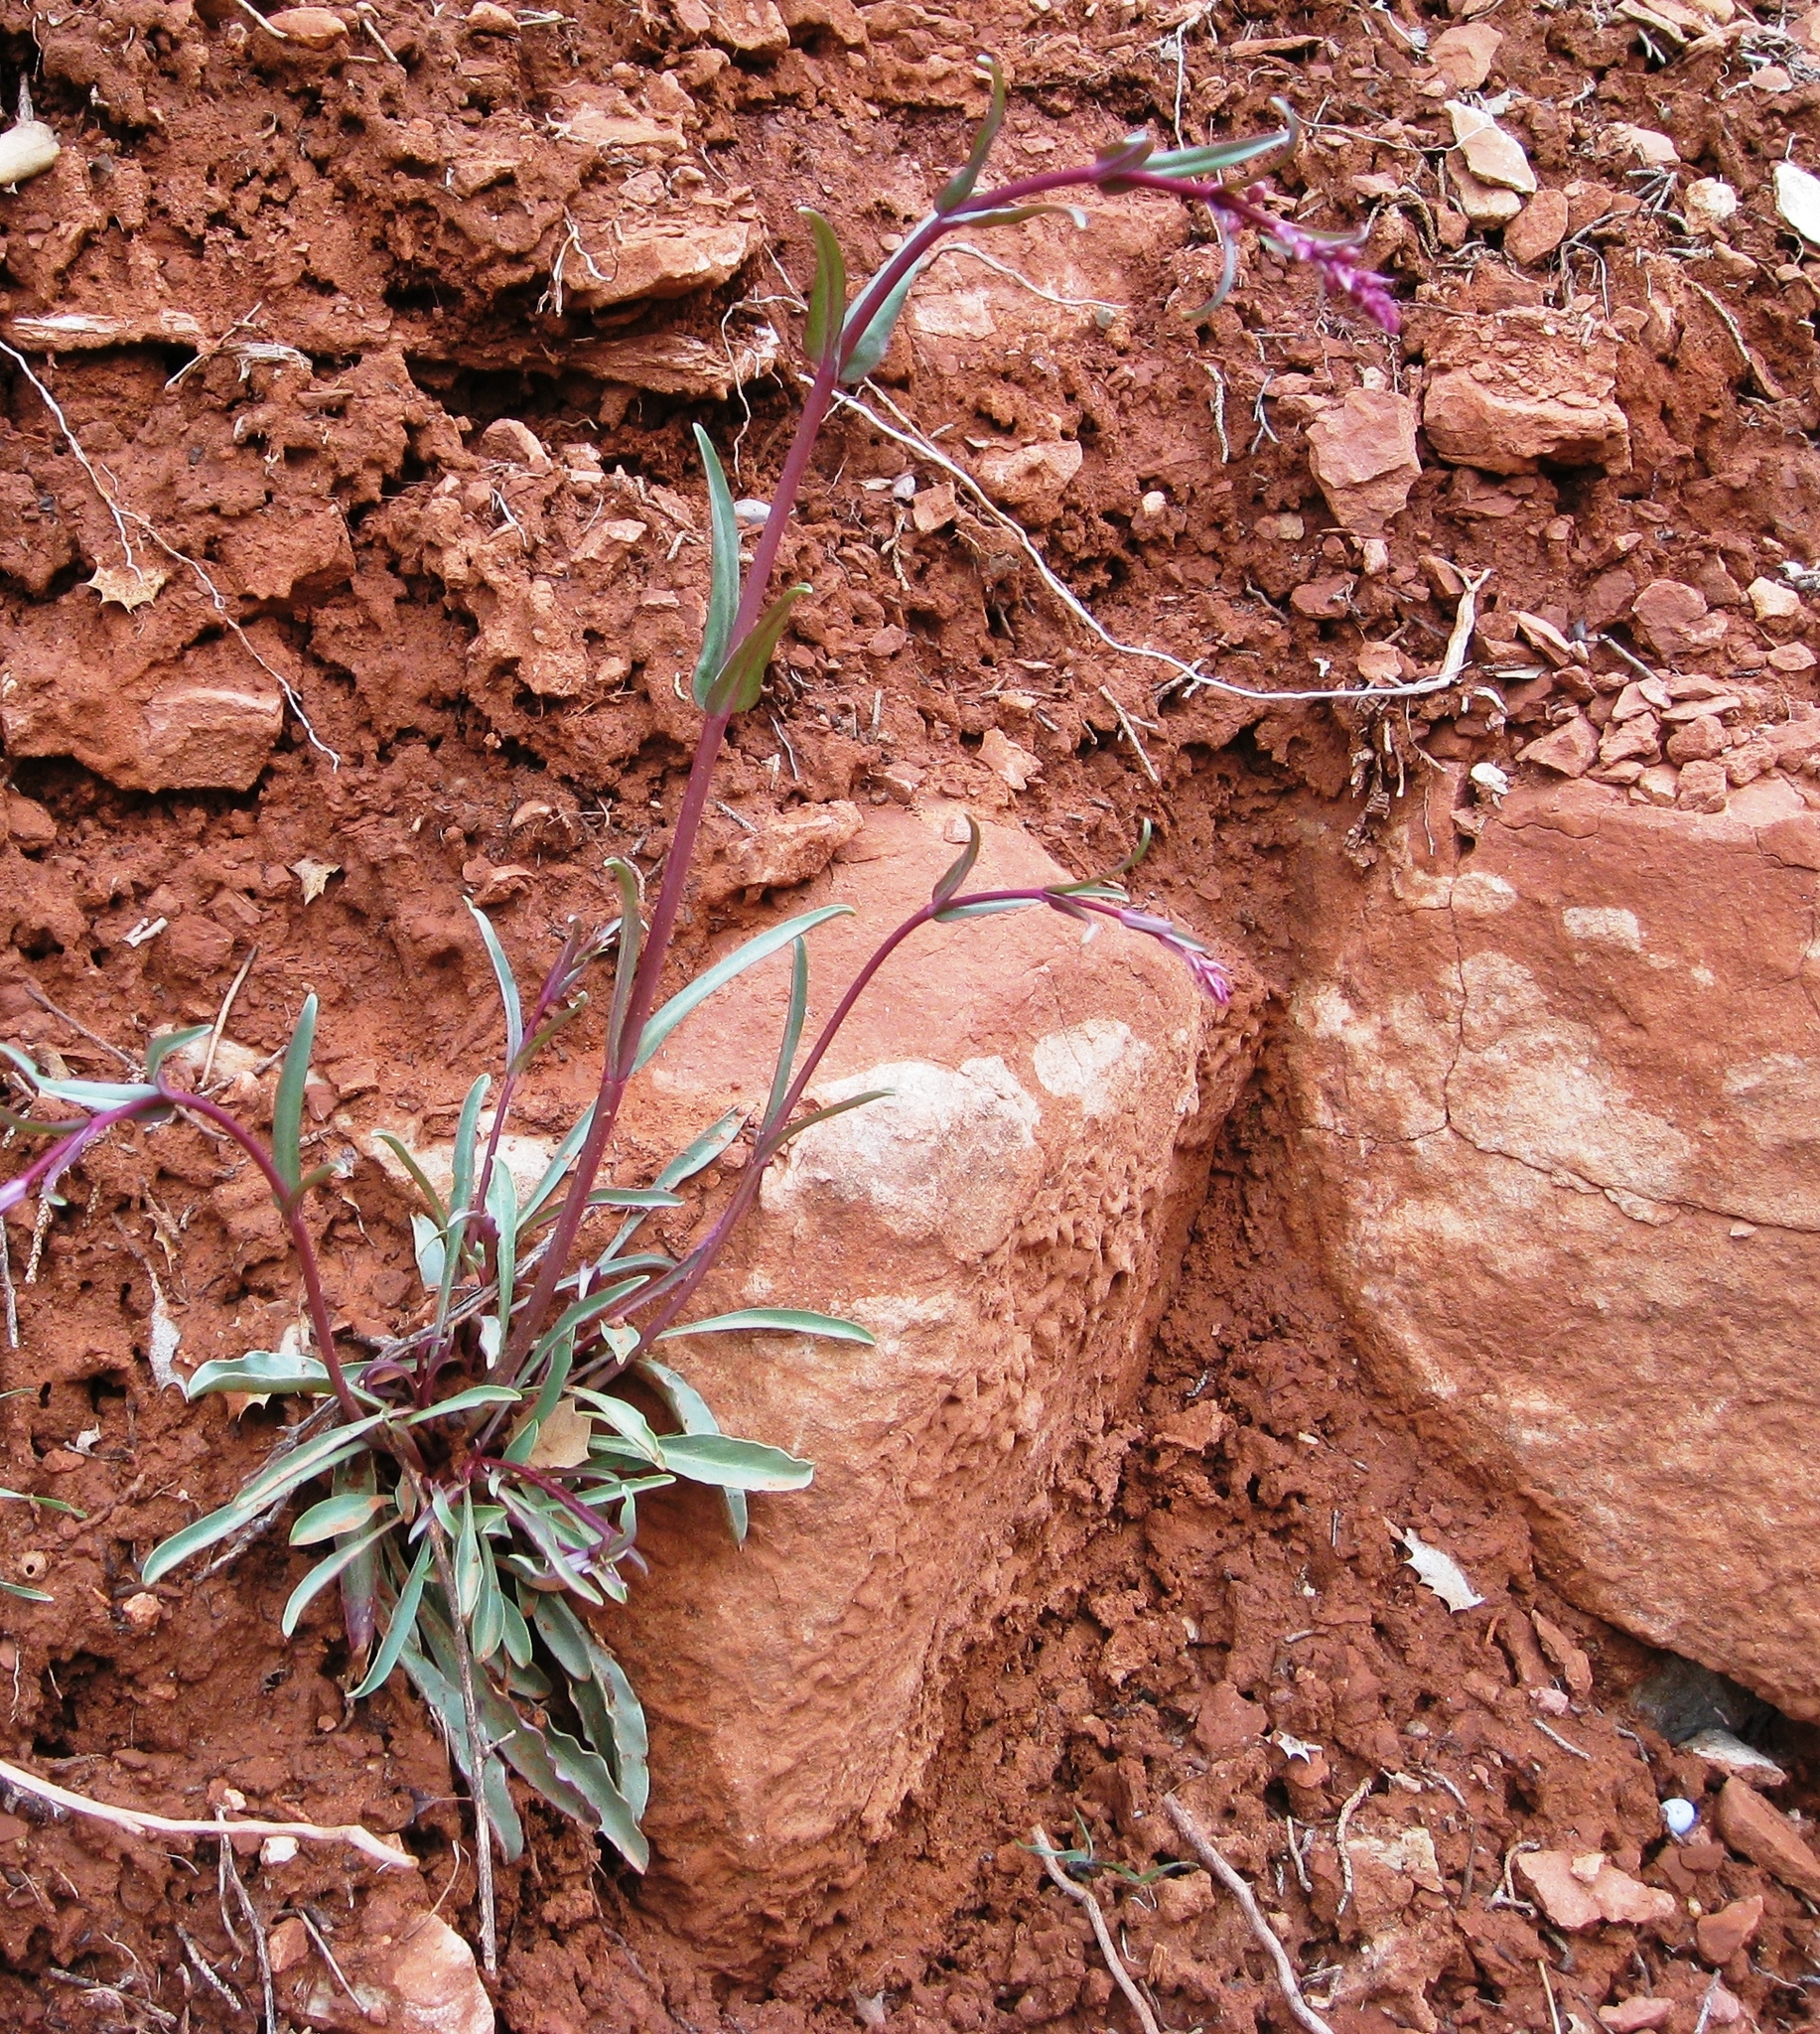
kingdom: Plantae
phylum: Tracheophyta
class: Magnoliopsida
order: Lamiales
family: Plantaginaceae
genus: Penstemon
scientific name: Penstemon utahensis
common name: Utah penstemon
